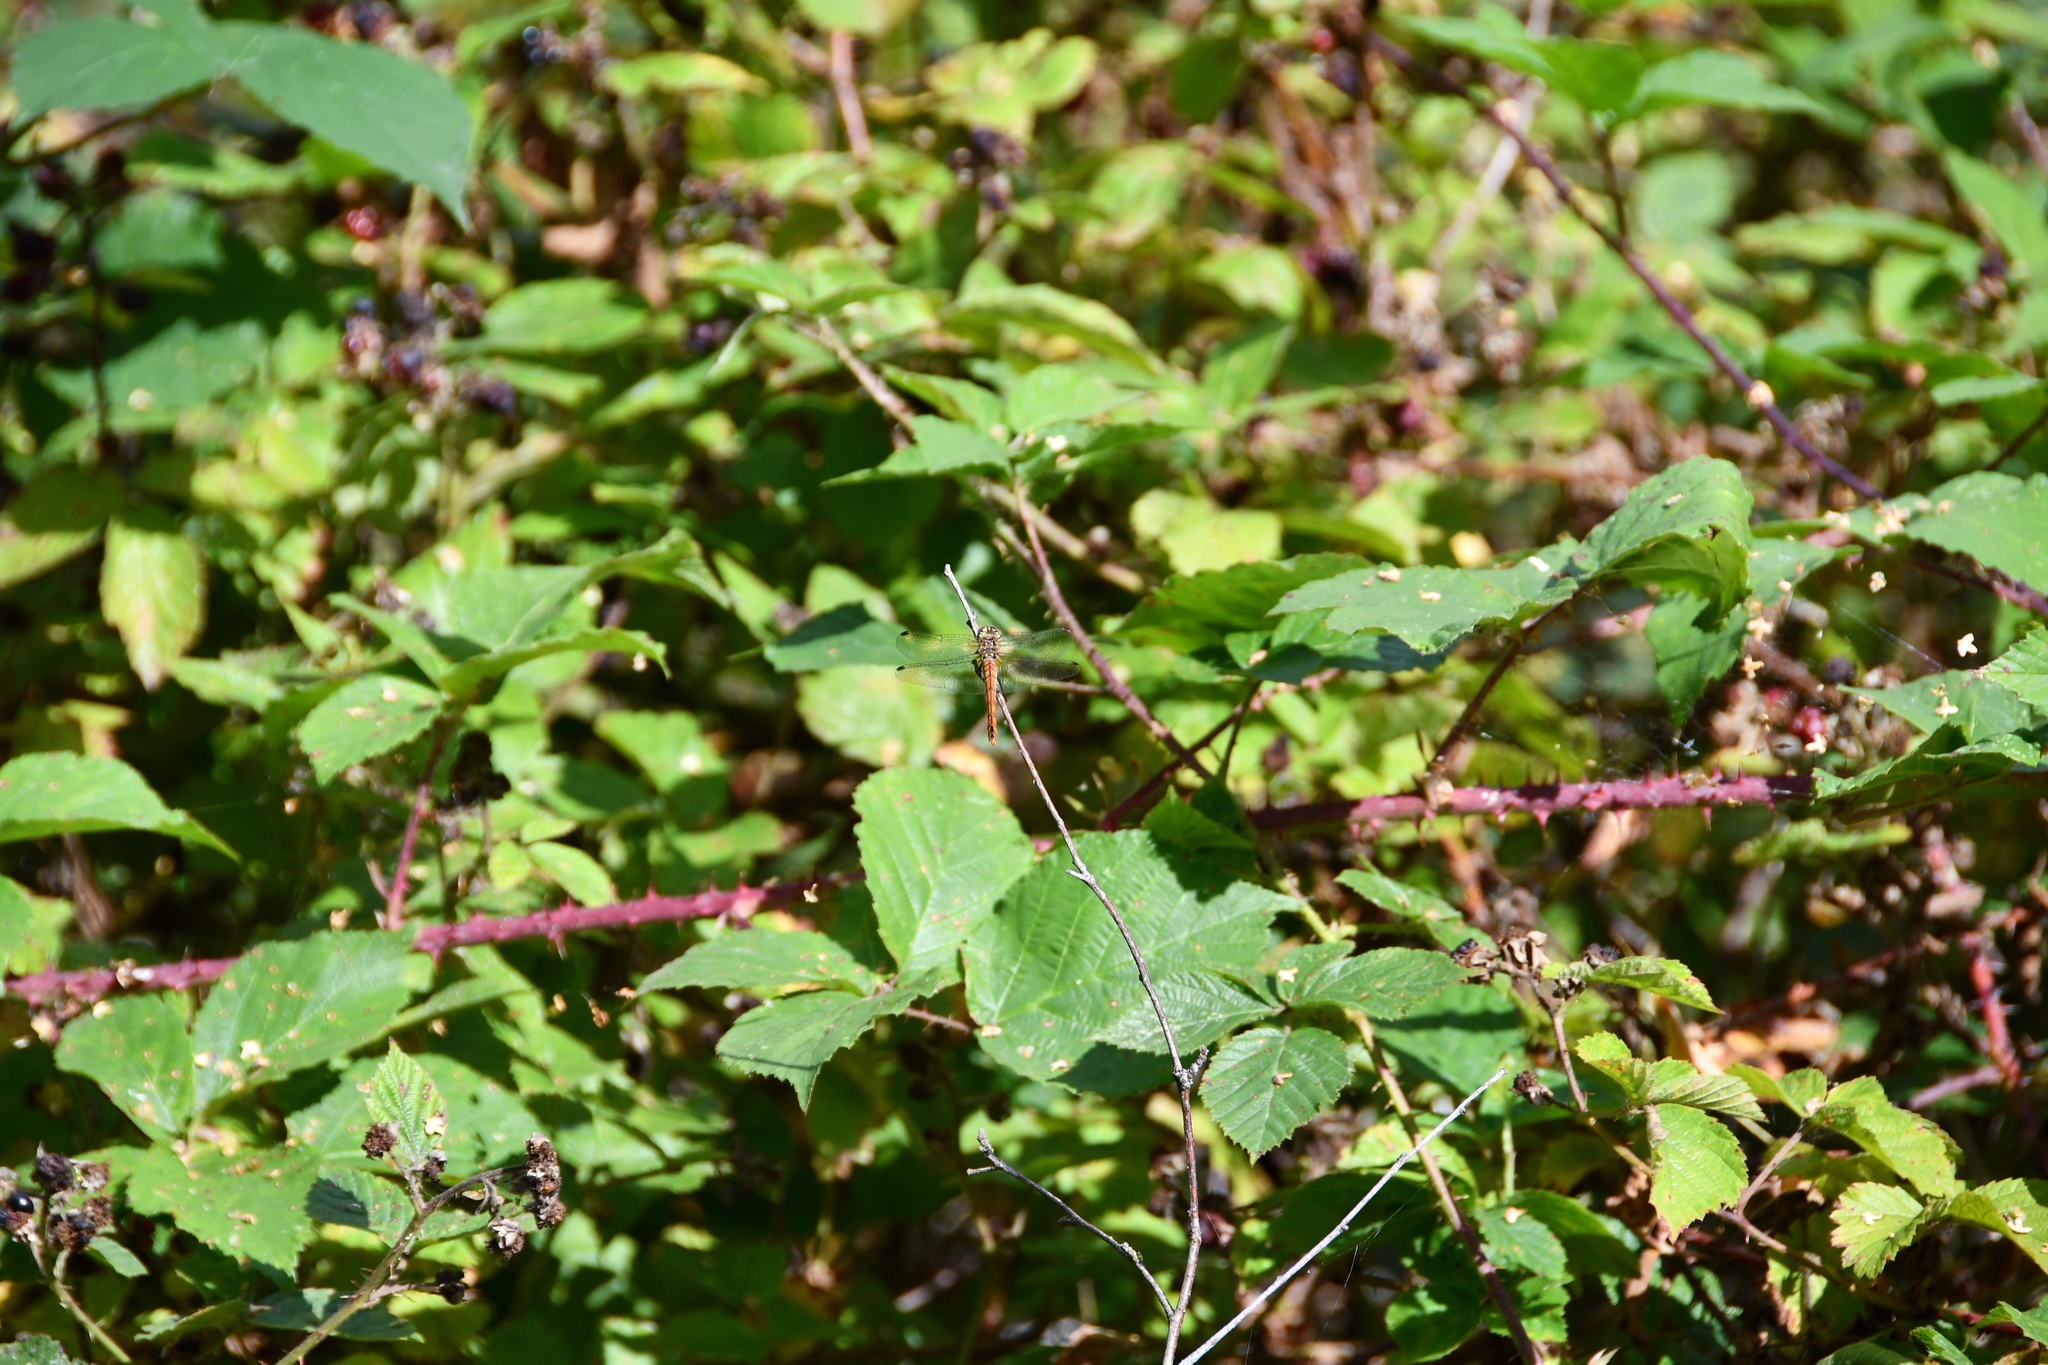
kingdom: Animalia
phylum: Arthropoda
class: Insecta
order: Odonata
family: Libellulidae
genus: Sympetrum
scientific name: Sympetrum sanguineum
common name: Ruddy darter
